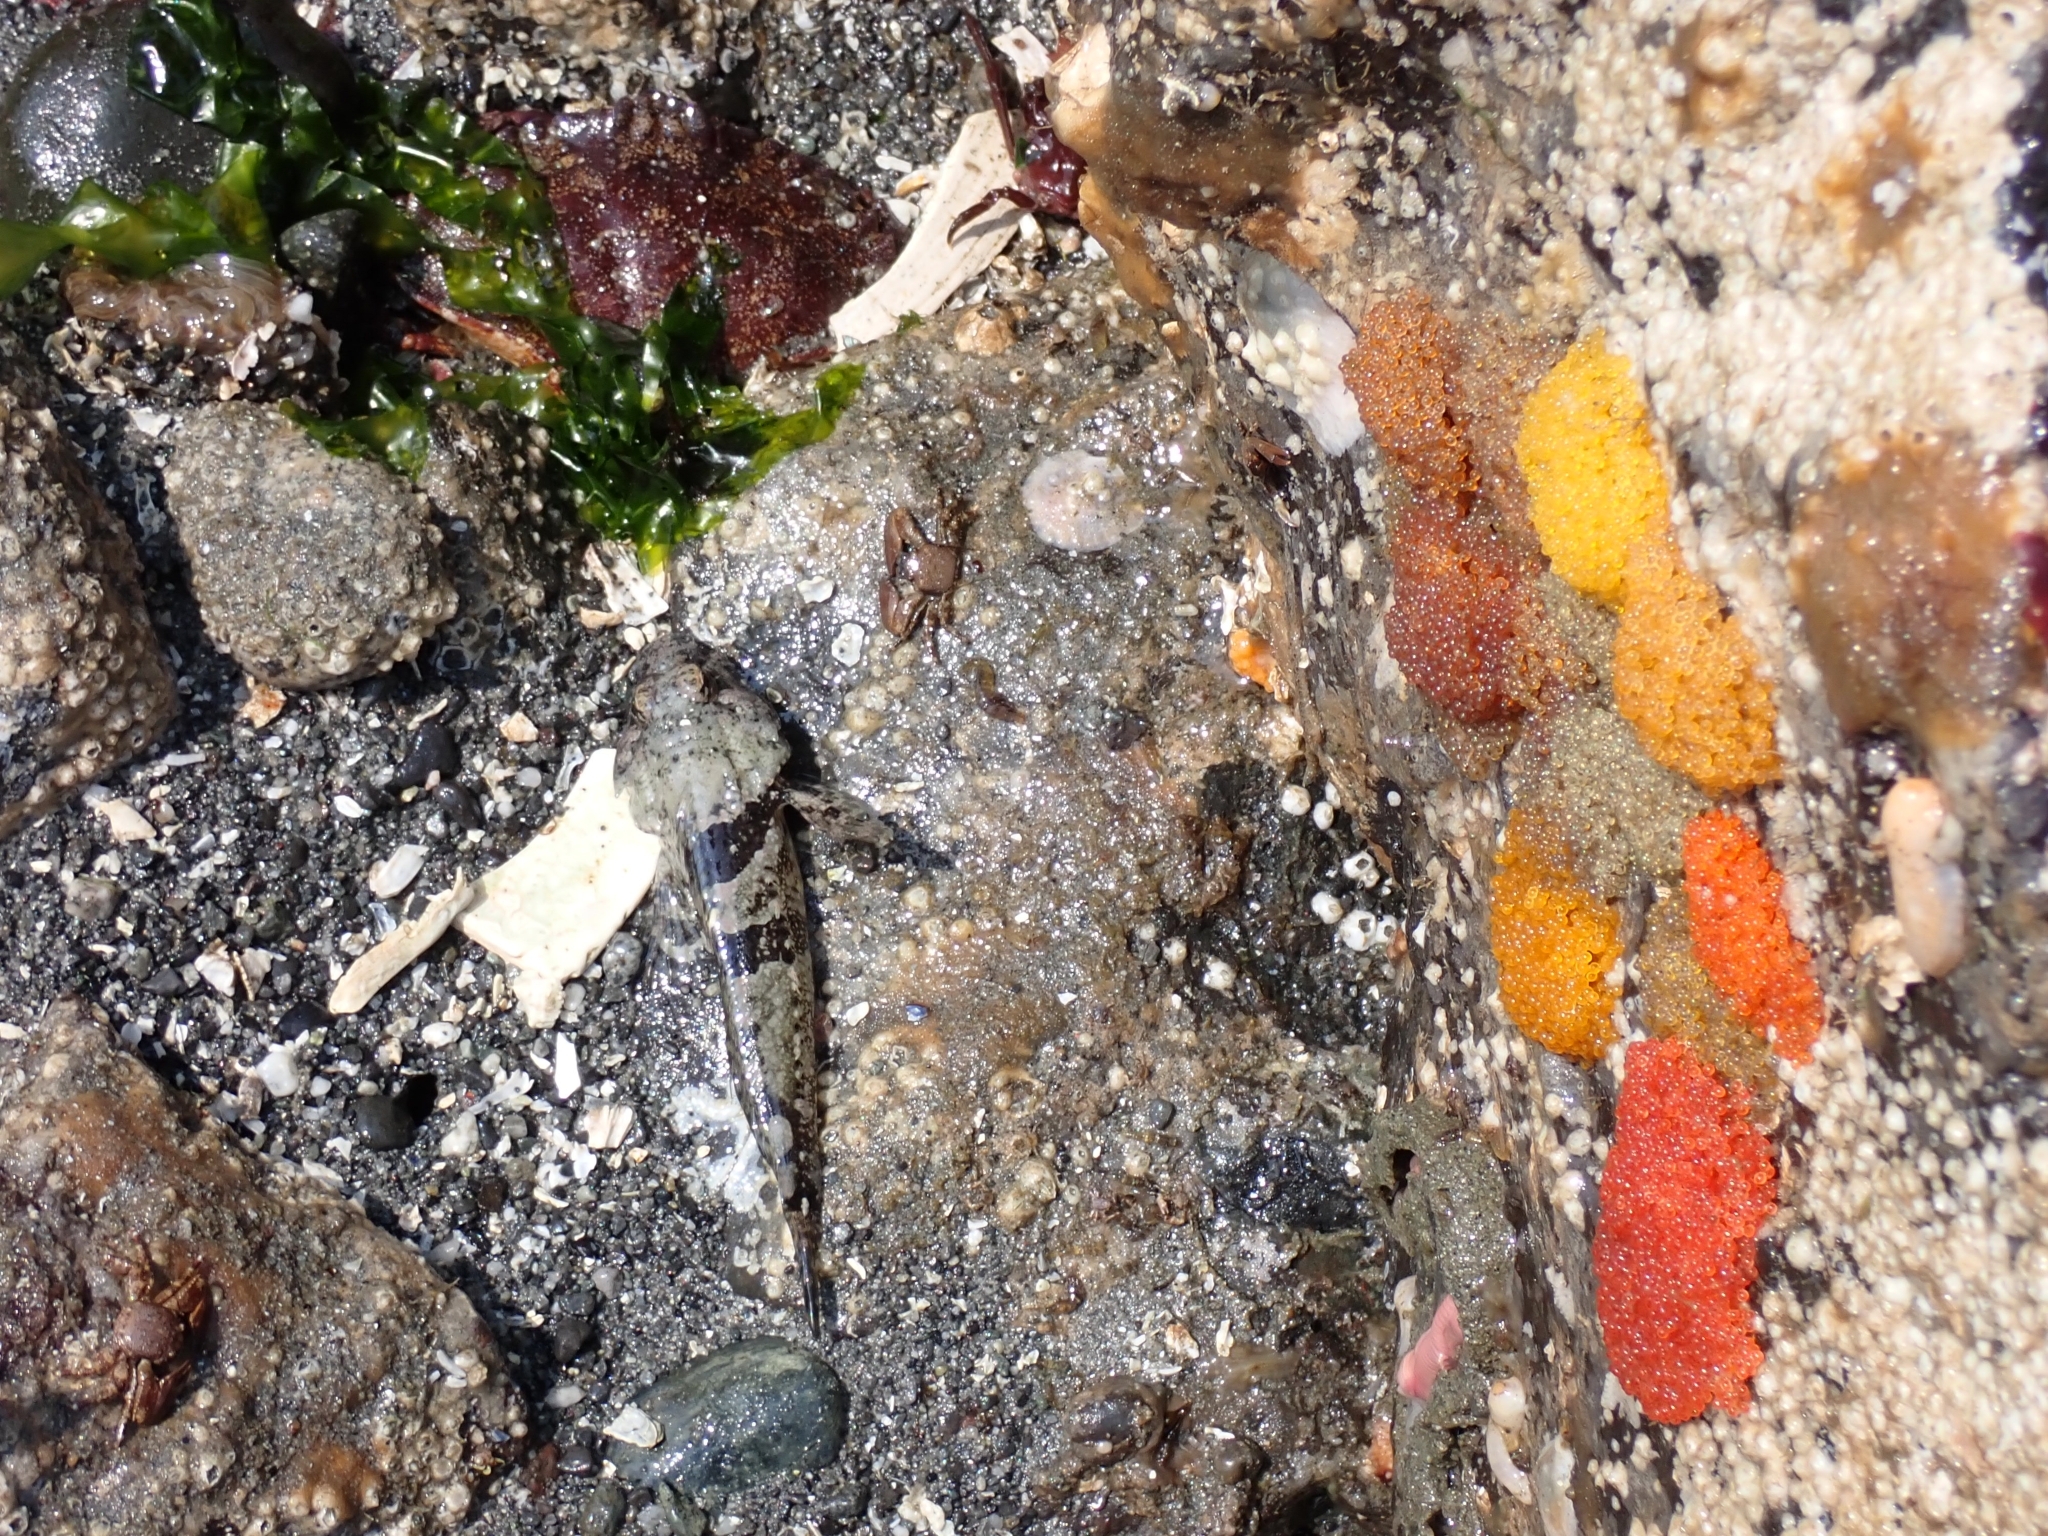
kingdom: Animalia
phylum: Chordata
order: Scorpaeniformes
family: Cottidae
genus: Artedius
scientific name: Artedius lateralis
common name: Smooth-head sculpin
